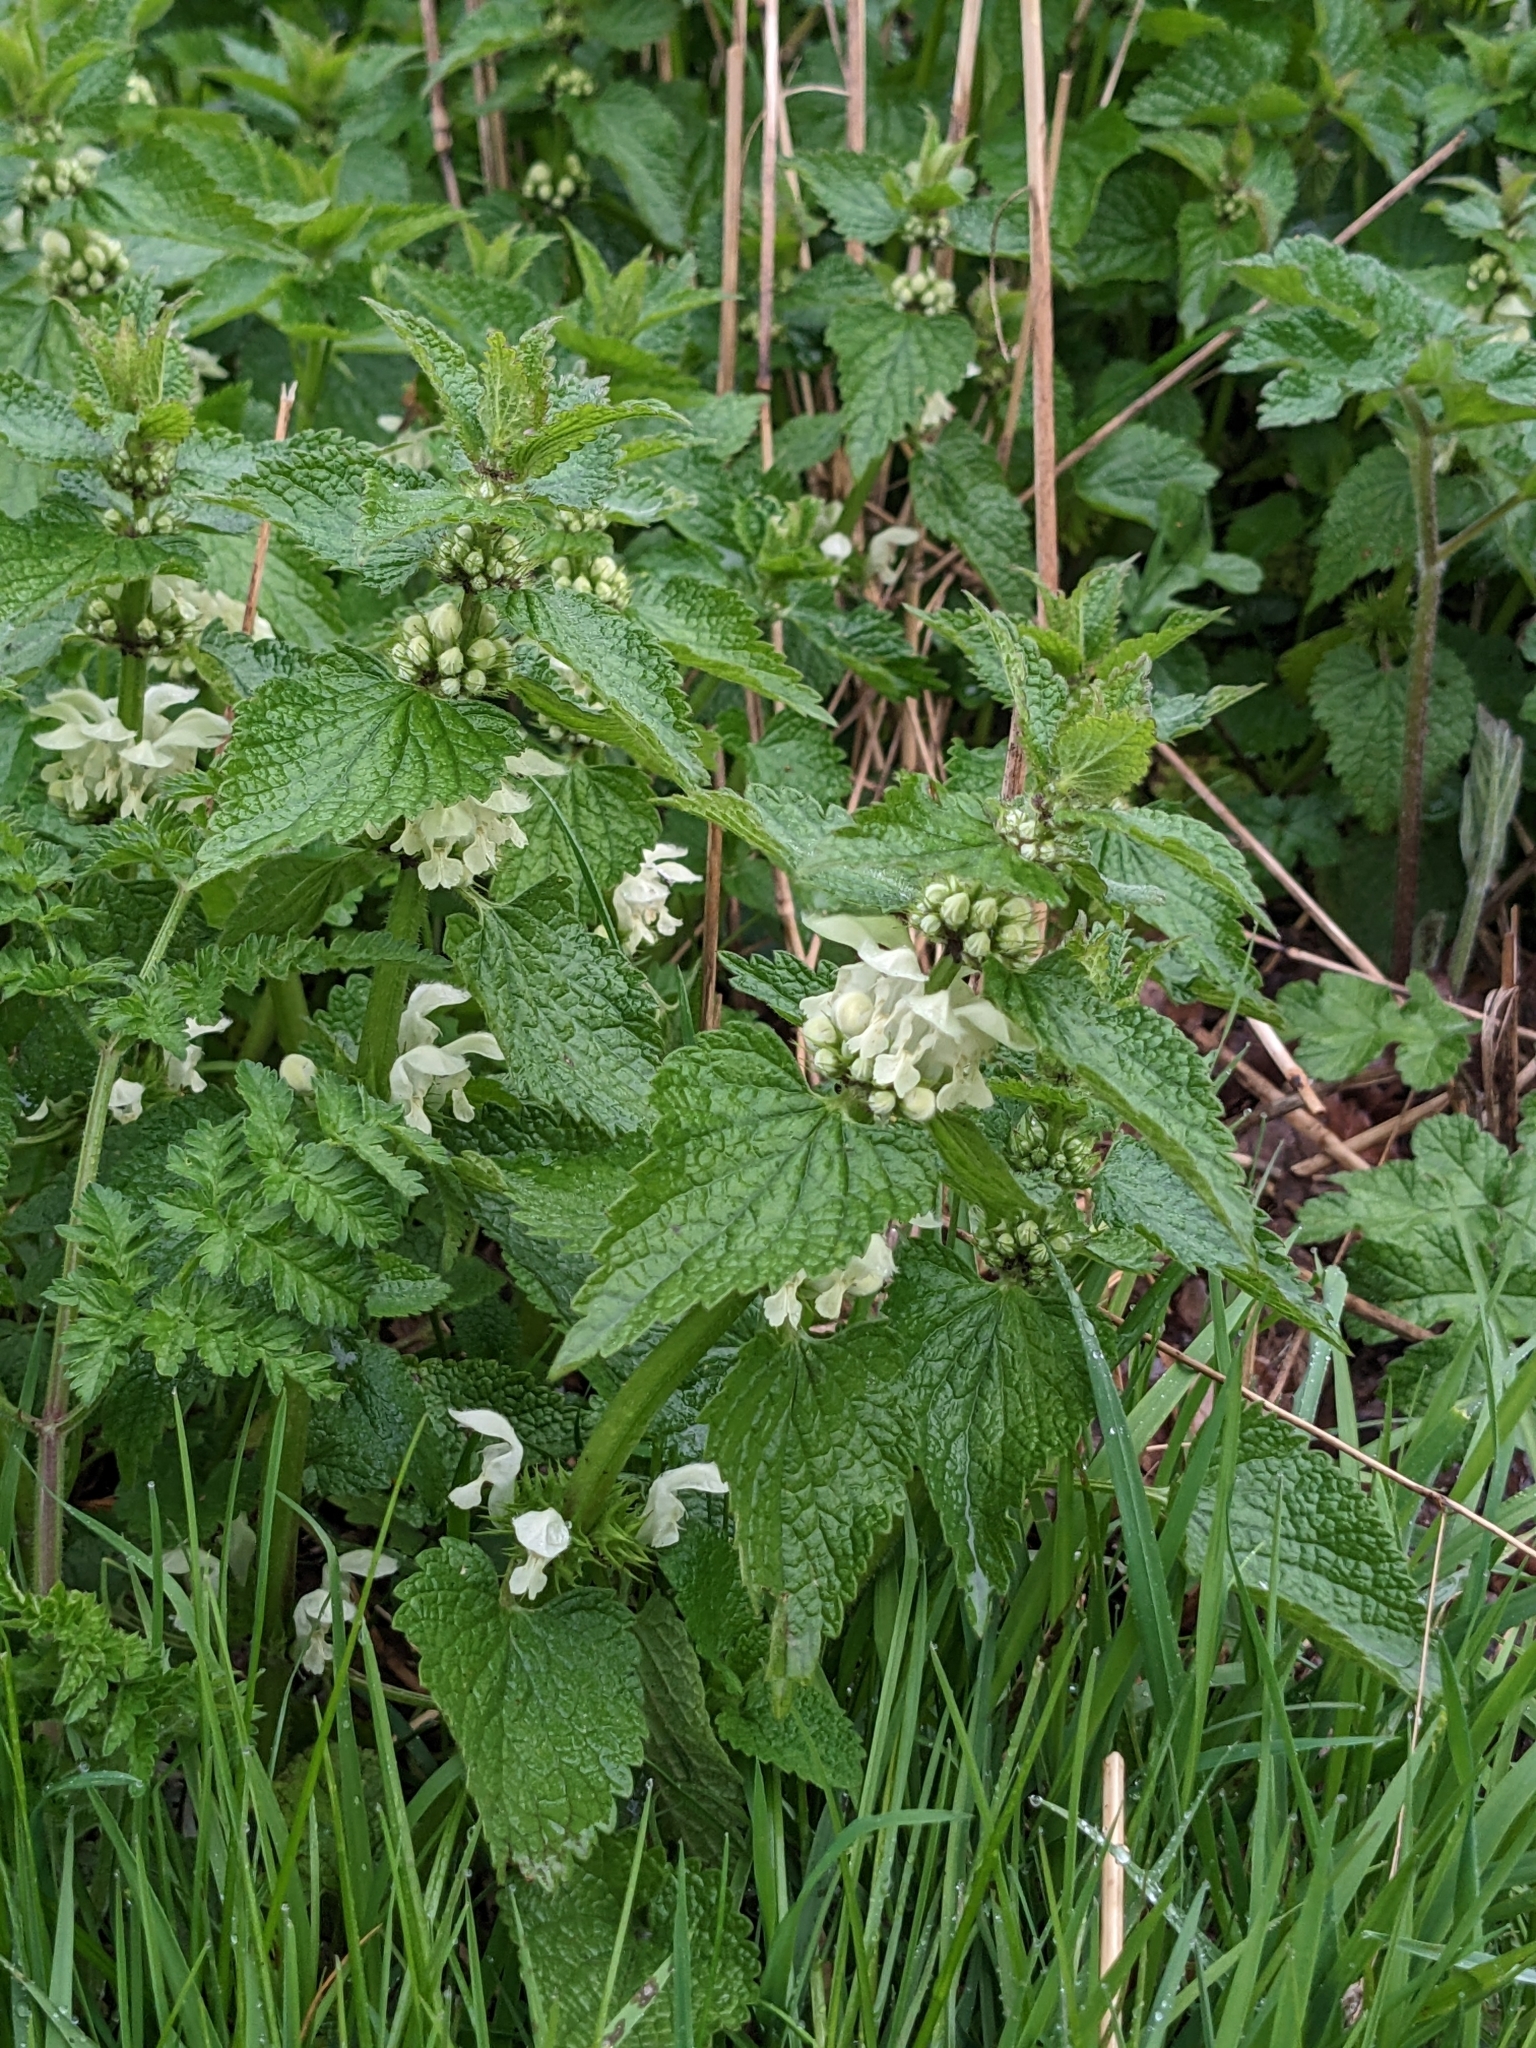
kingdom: Plantae
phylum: Tracheophyta
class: Magnoliopsida
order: Lamiales
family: Lamiaceae
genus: Lamium
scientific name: Lamium album
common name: White dead-nettle
